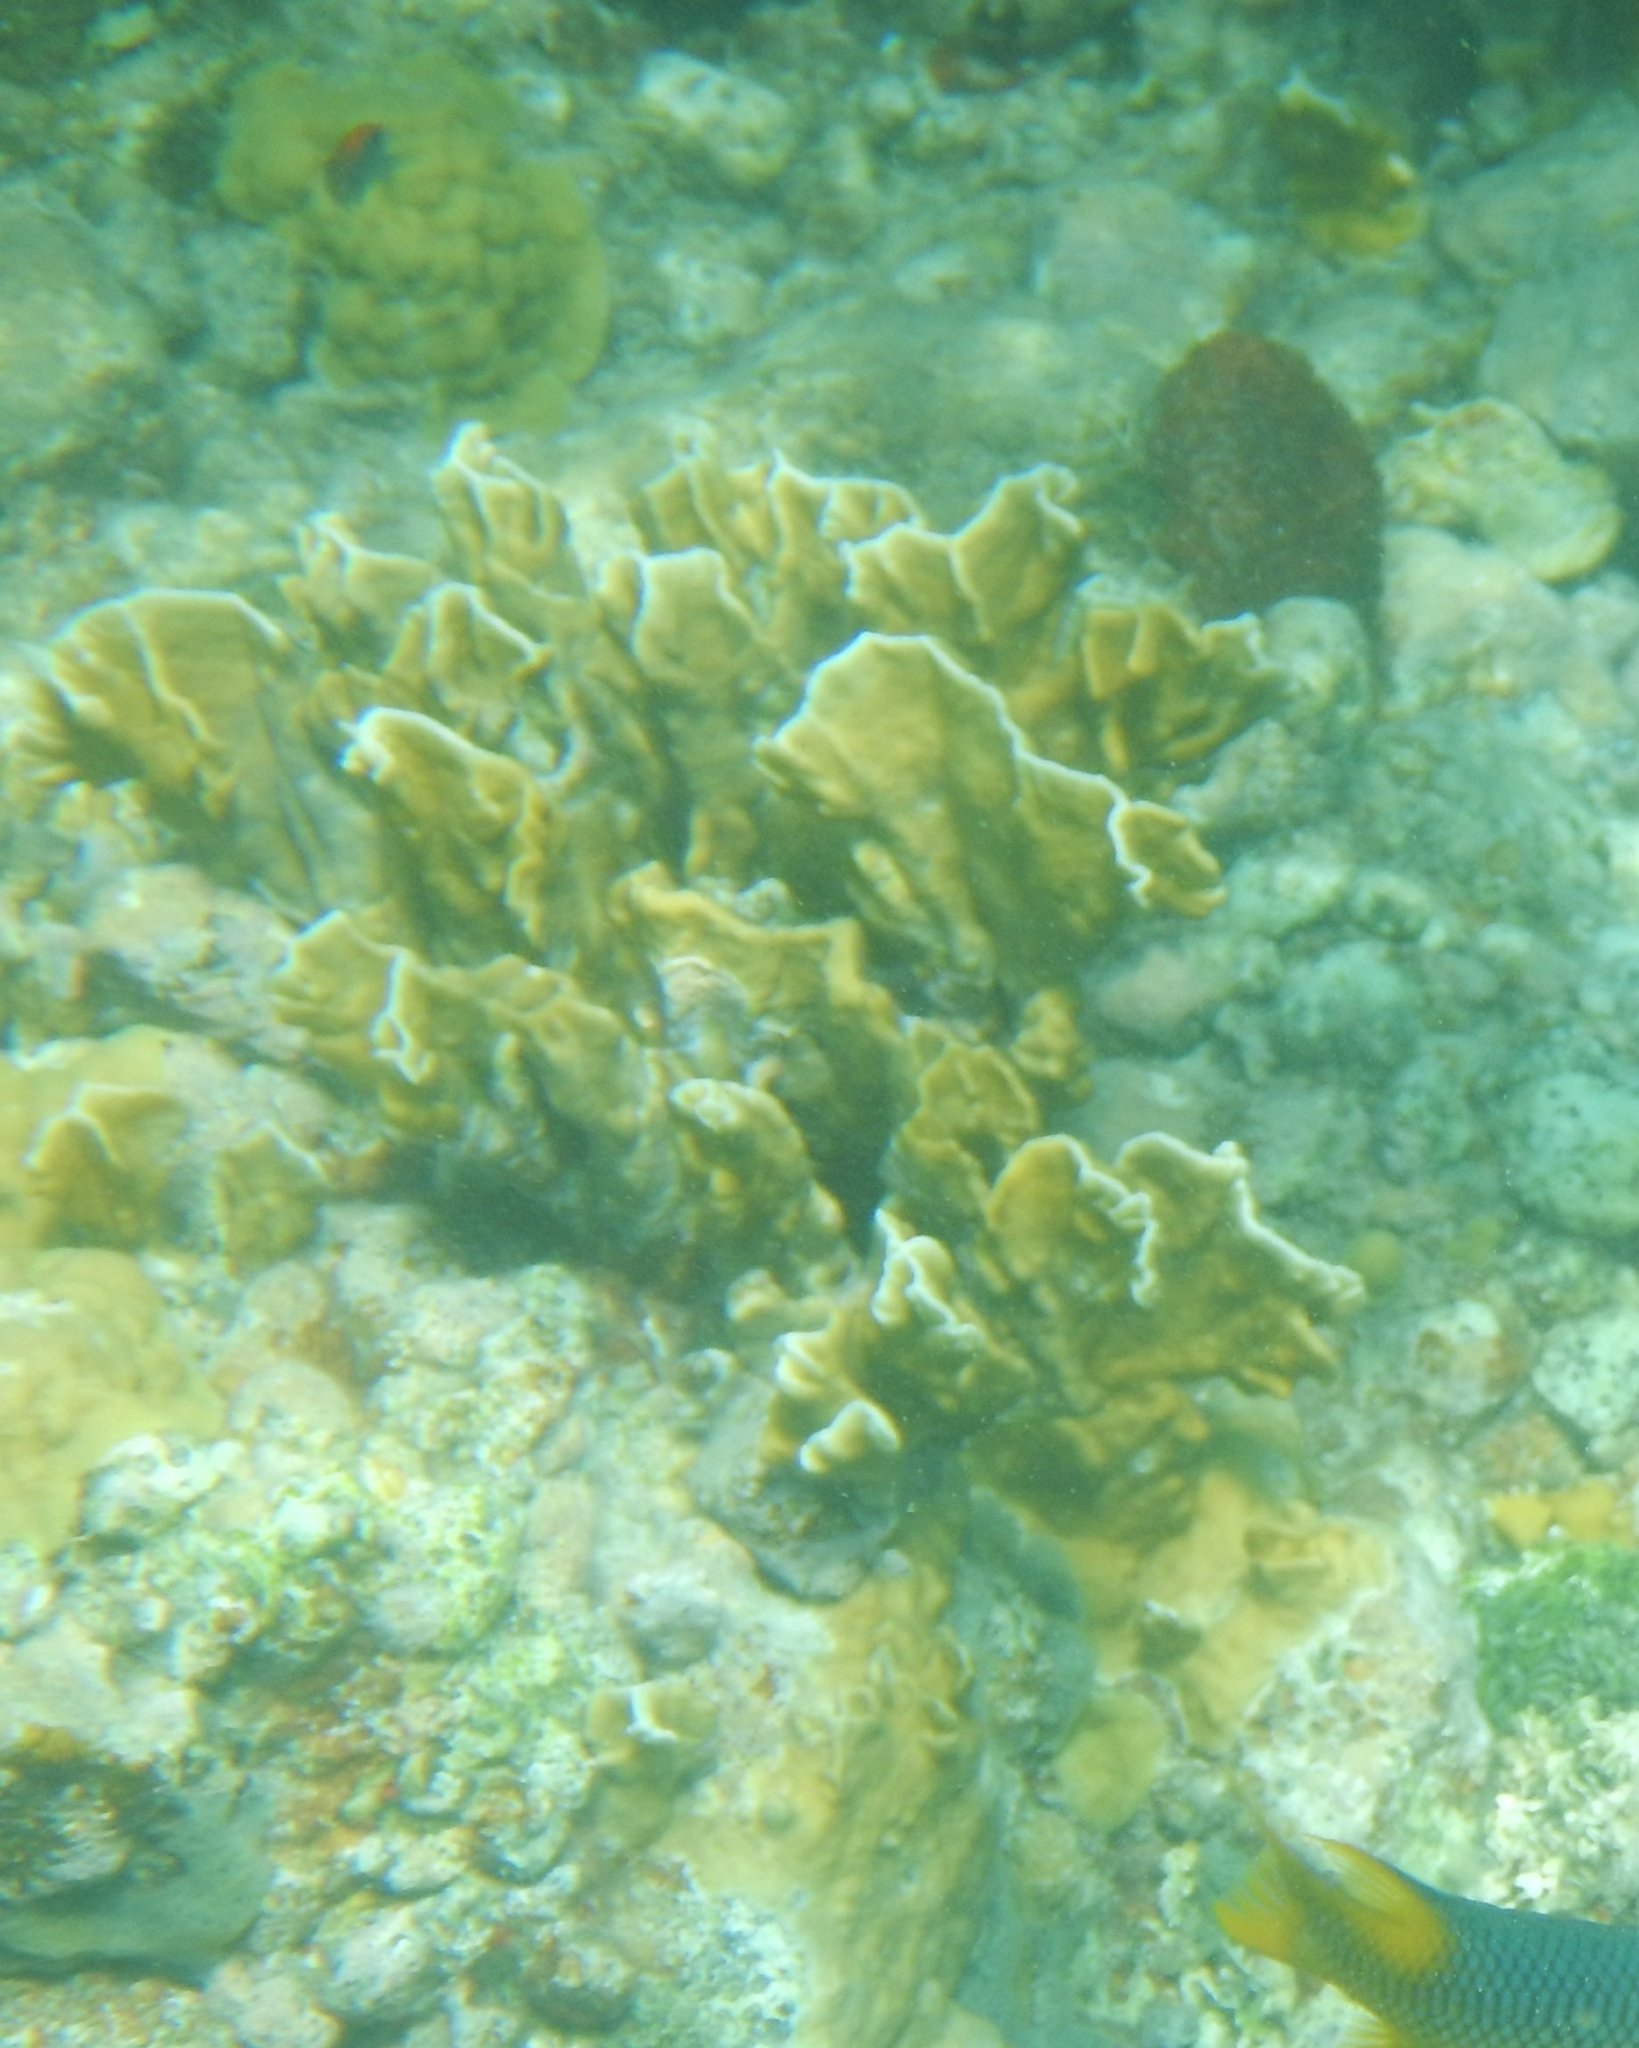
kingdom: Animalia
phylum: Cnidaria
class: Hydrozoa
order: Anthoathecata
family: Milleporidae
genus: Millepora
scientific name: Millepora complanata
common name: Bladed fire coral
